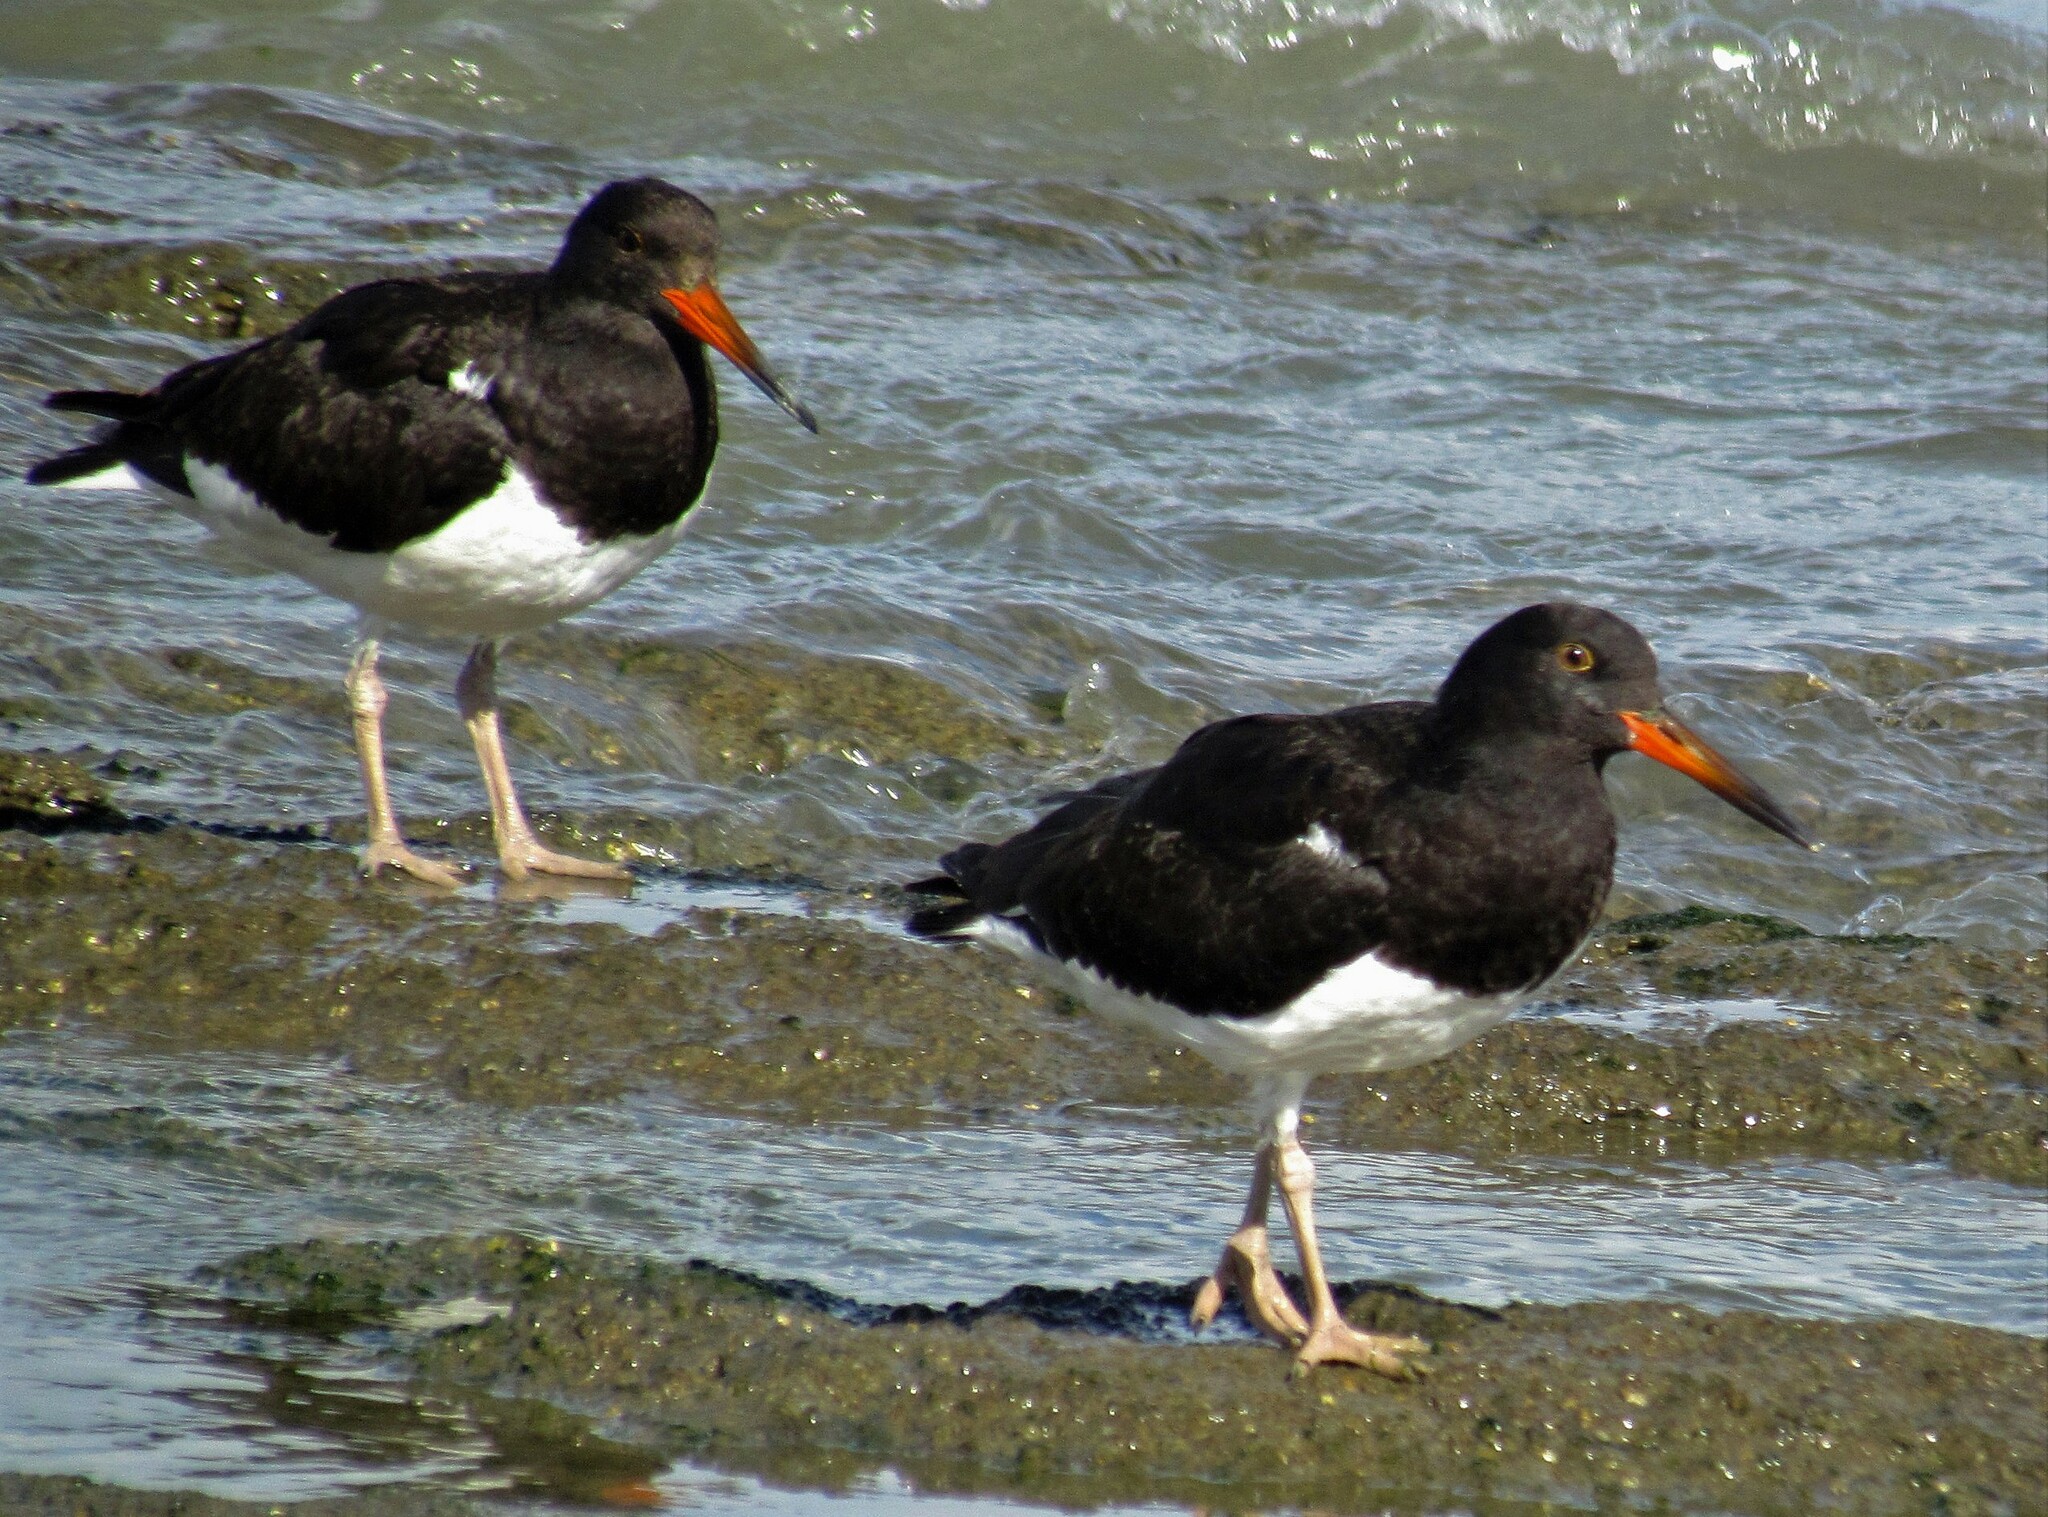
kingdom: Animalia
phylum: Chordata
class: Aves
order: Charadriiformes
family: Haematopodidae
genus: Haematopus
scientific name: Haematopus leucopodus
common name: Magellanic oystercatcher
